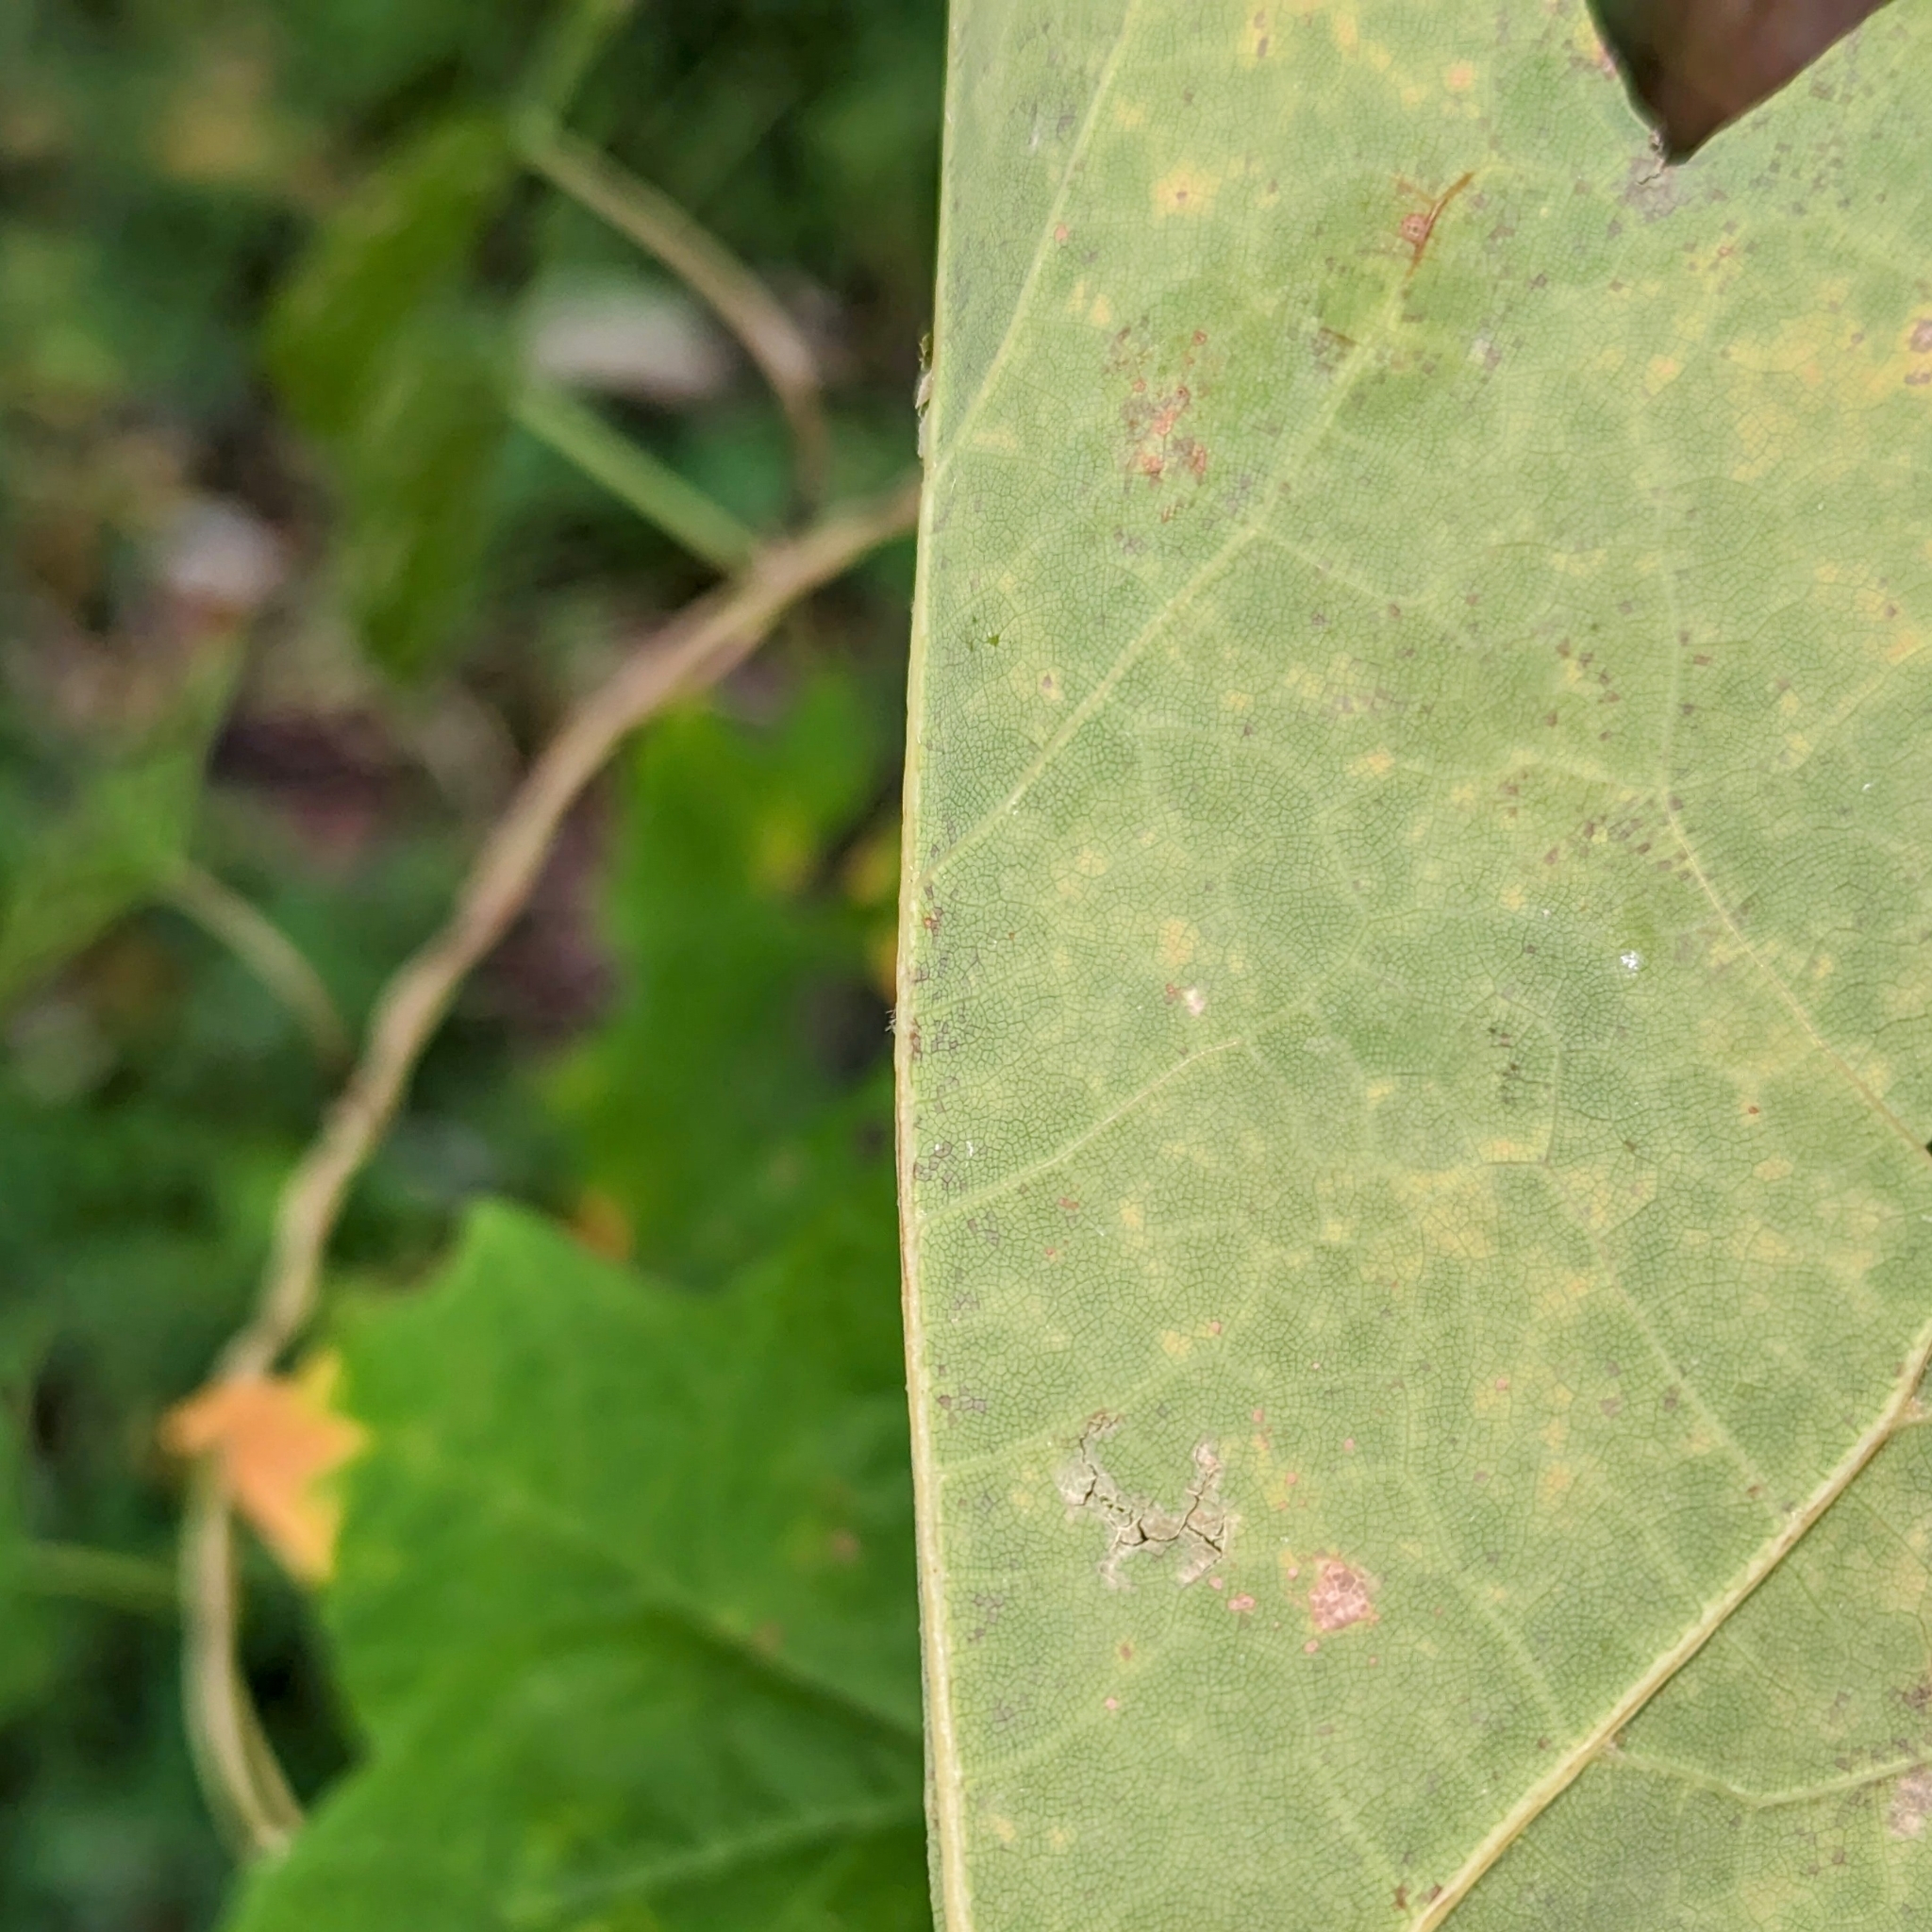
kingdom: Plantae
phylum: Tracheophyta
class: Magnoliopsida
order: Sapindales
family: Sapindaceae
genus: Acer
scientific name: Acer saccharum
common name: Sugar maple
